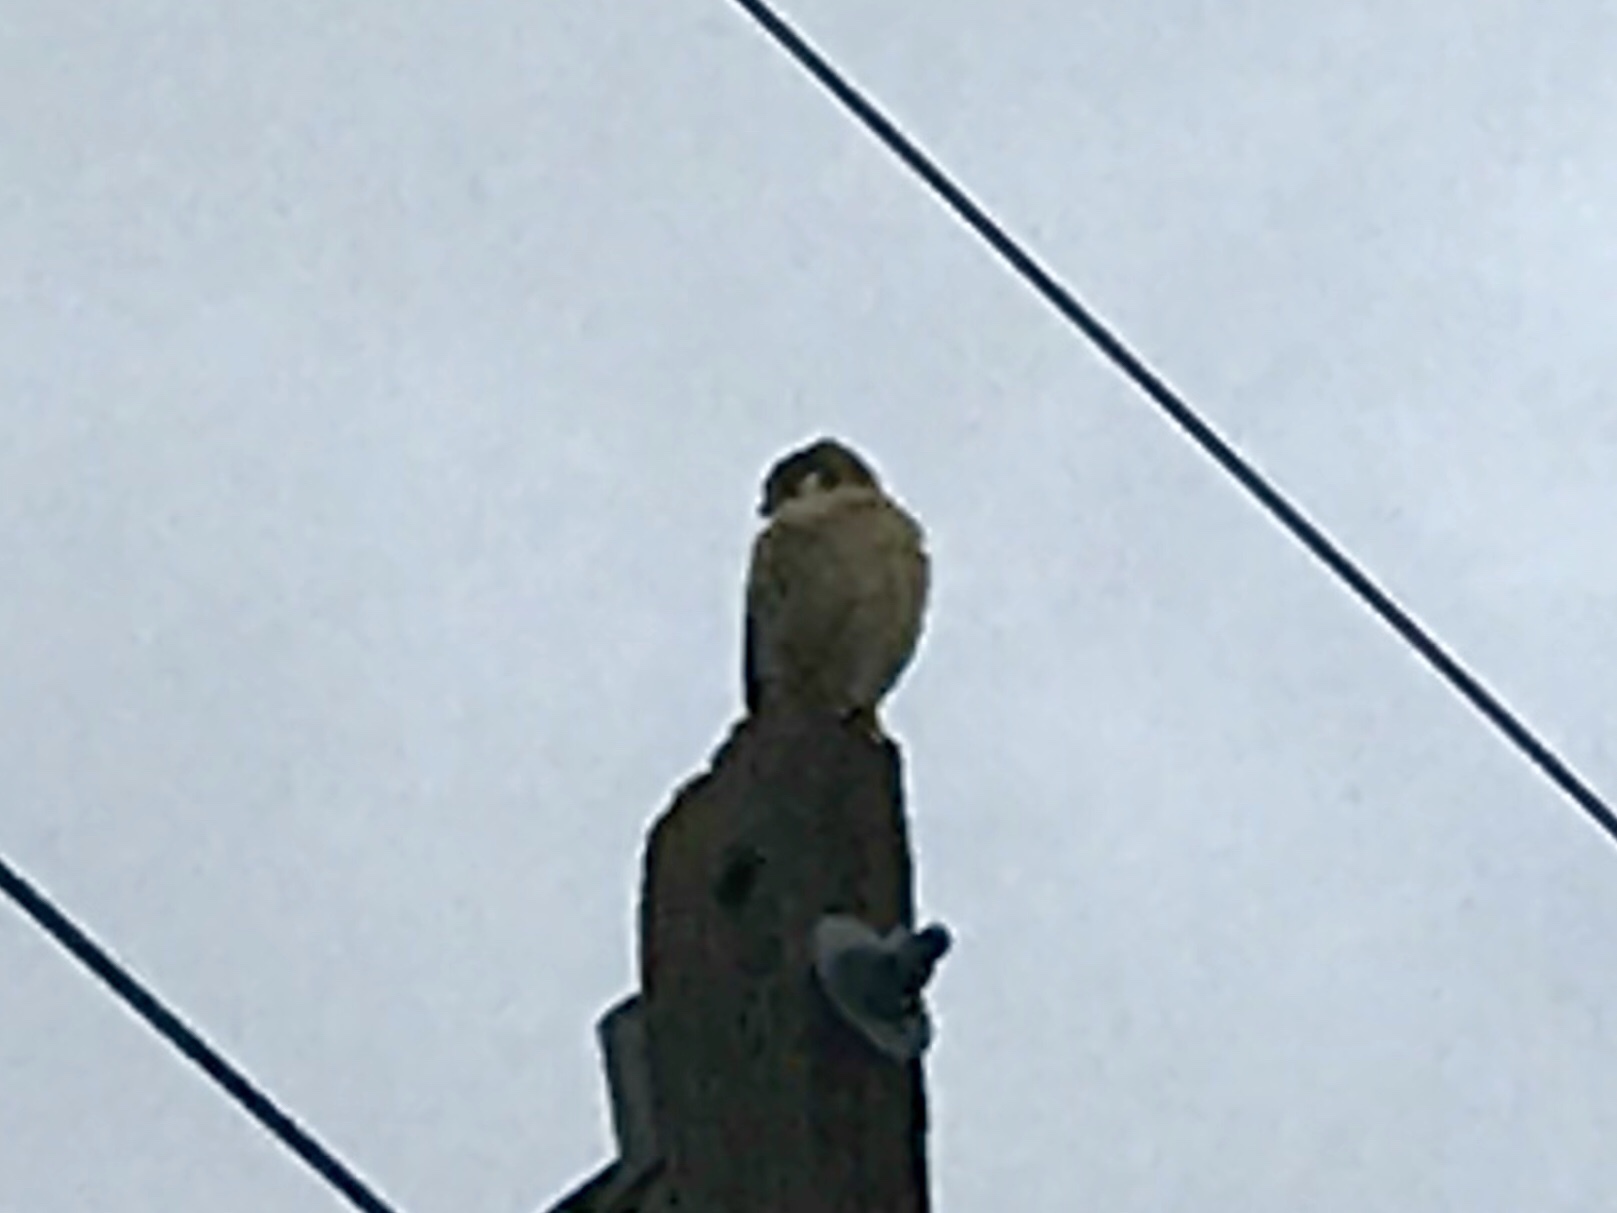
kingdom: Animalia
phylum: Chordata
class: Aves
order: Falconiformes
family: Falconidae
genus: Falco
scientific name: Falco sparverius
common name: American kestrel
